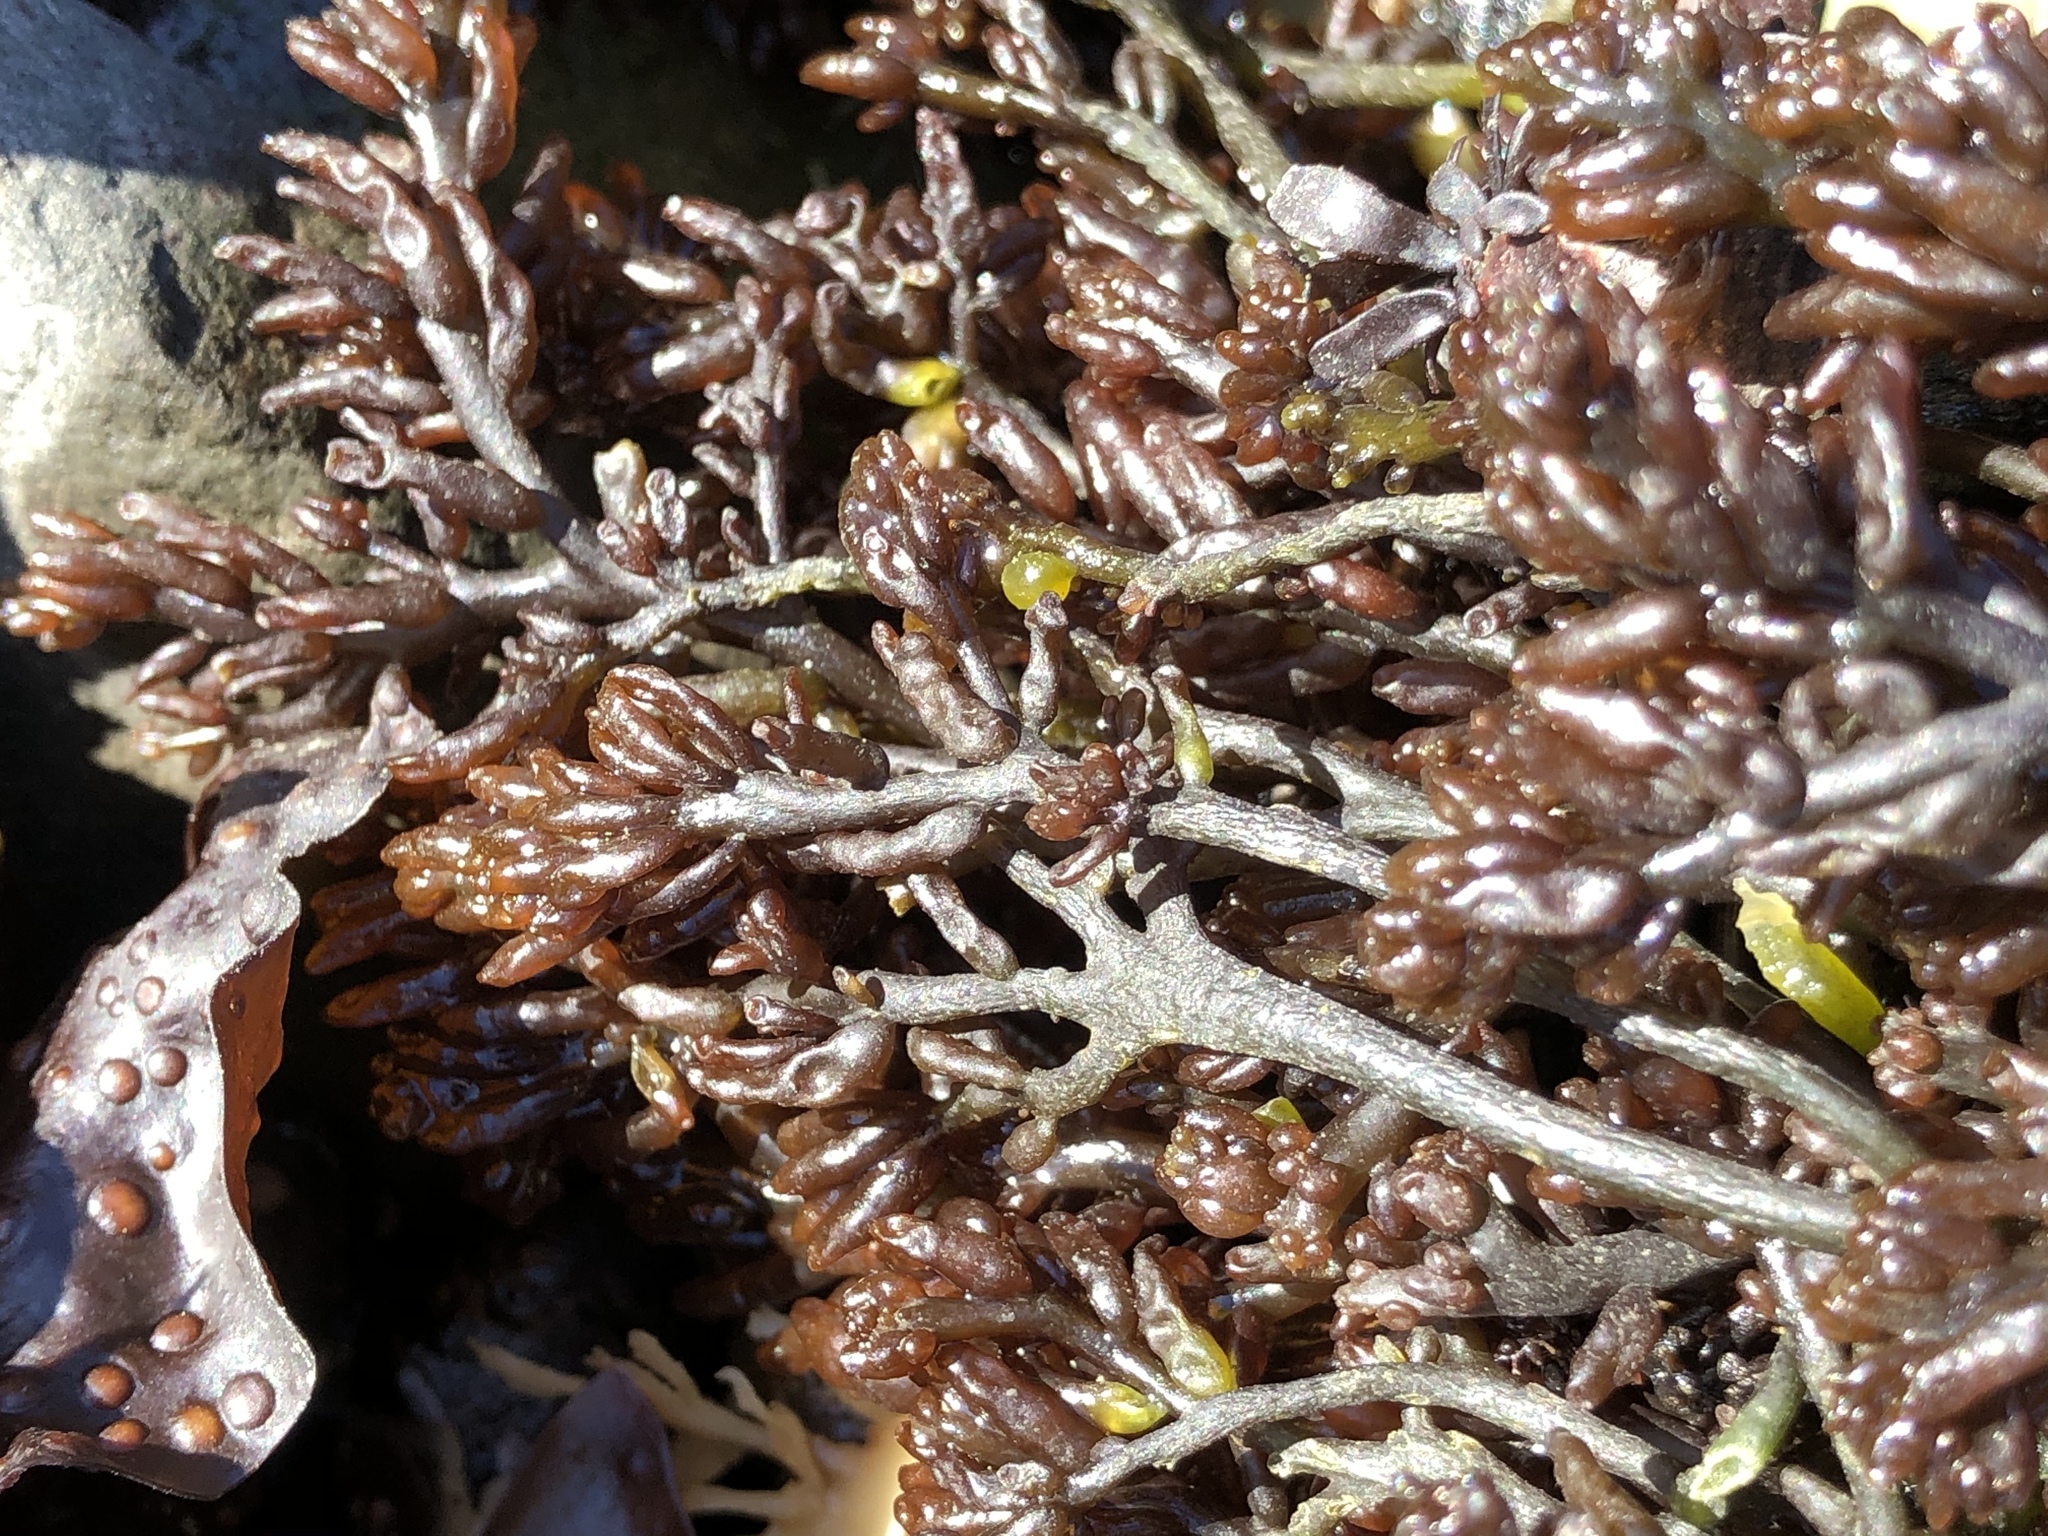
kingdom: Plantae
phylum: Rhodophyta
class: Florideophyceae
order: Rhodymeniales
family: Champiaceae
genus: Neogastroclonium
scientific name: Neogastroclonium subarticulatum
